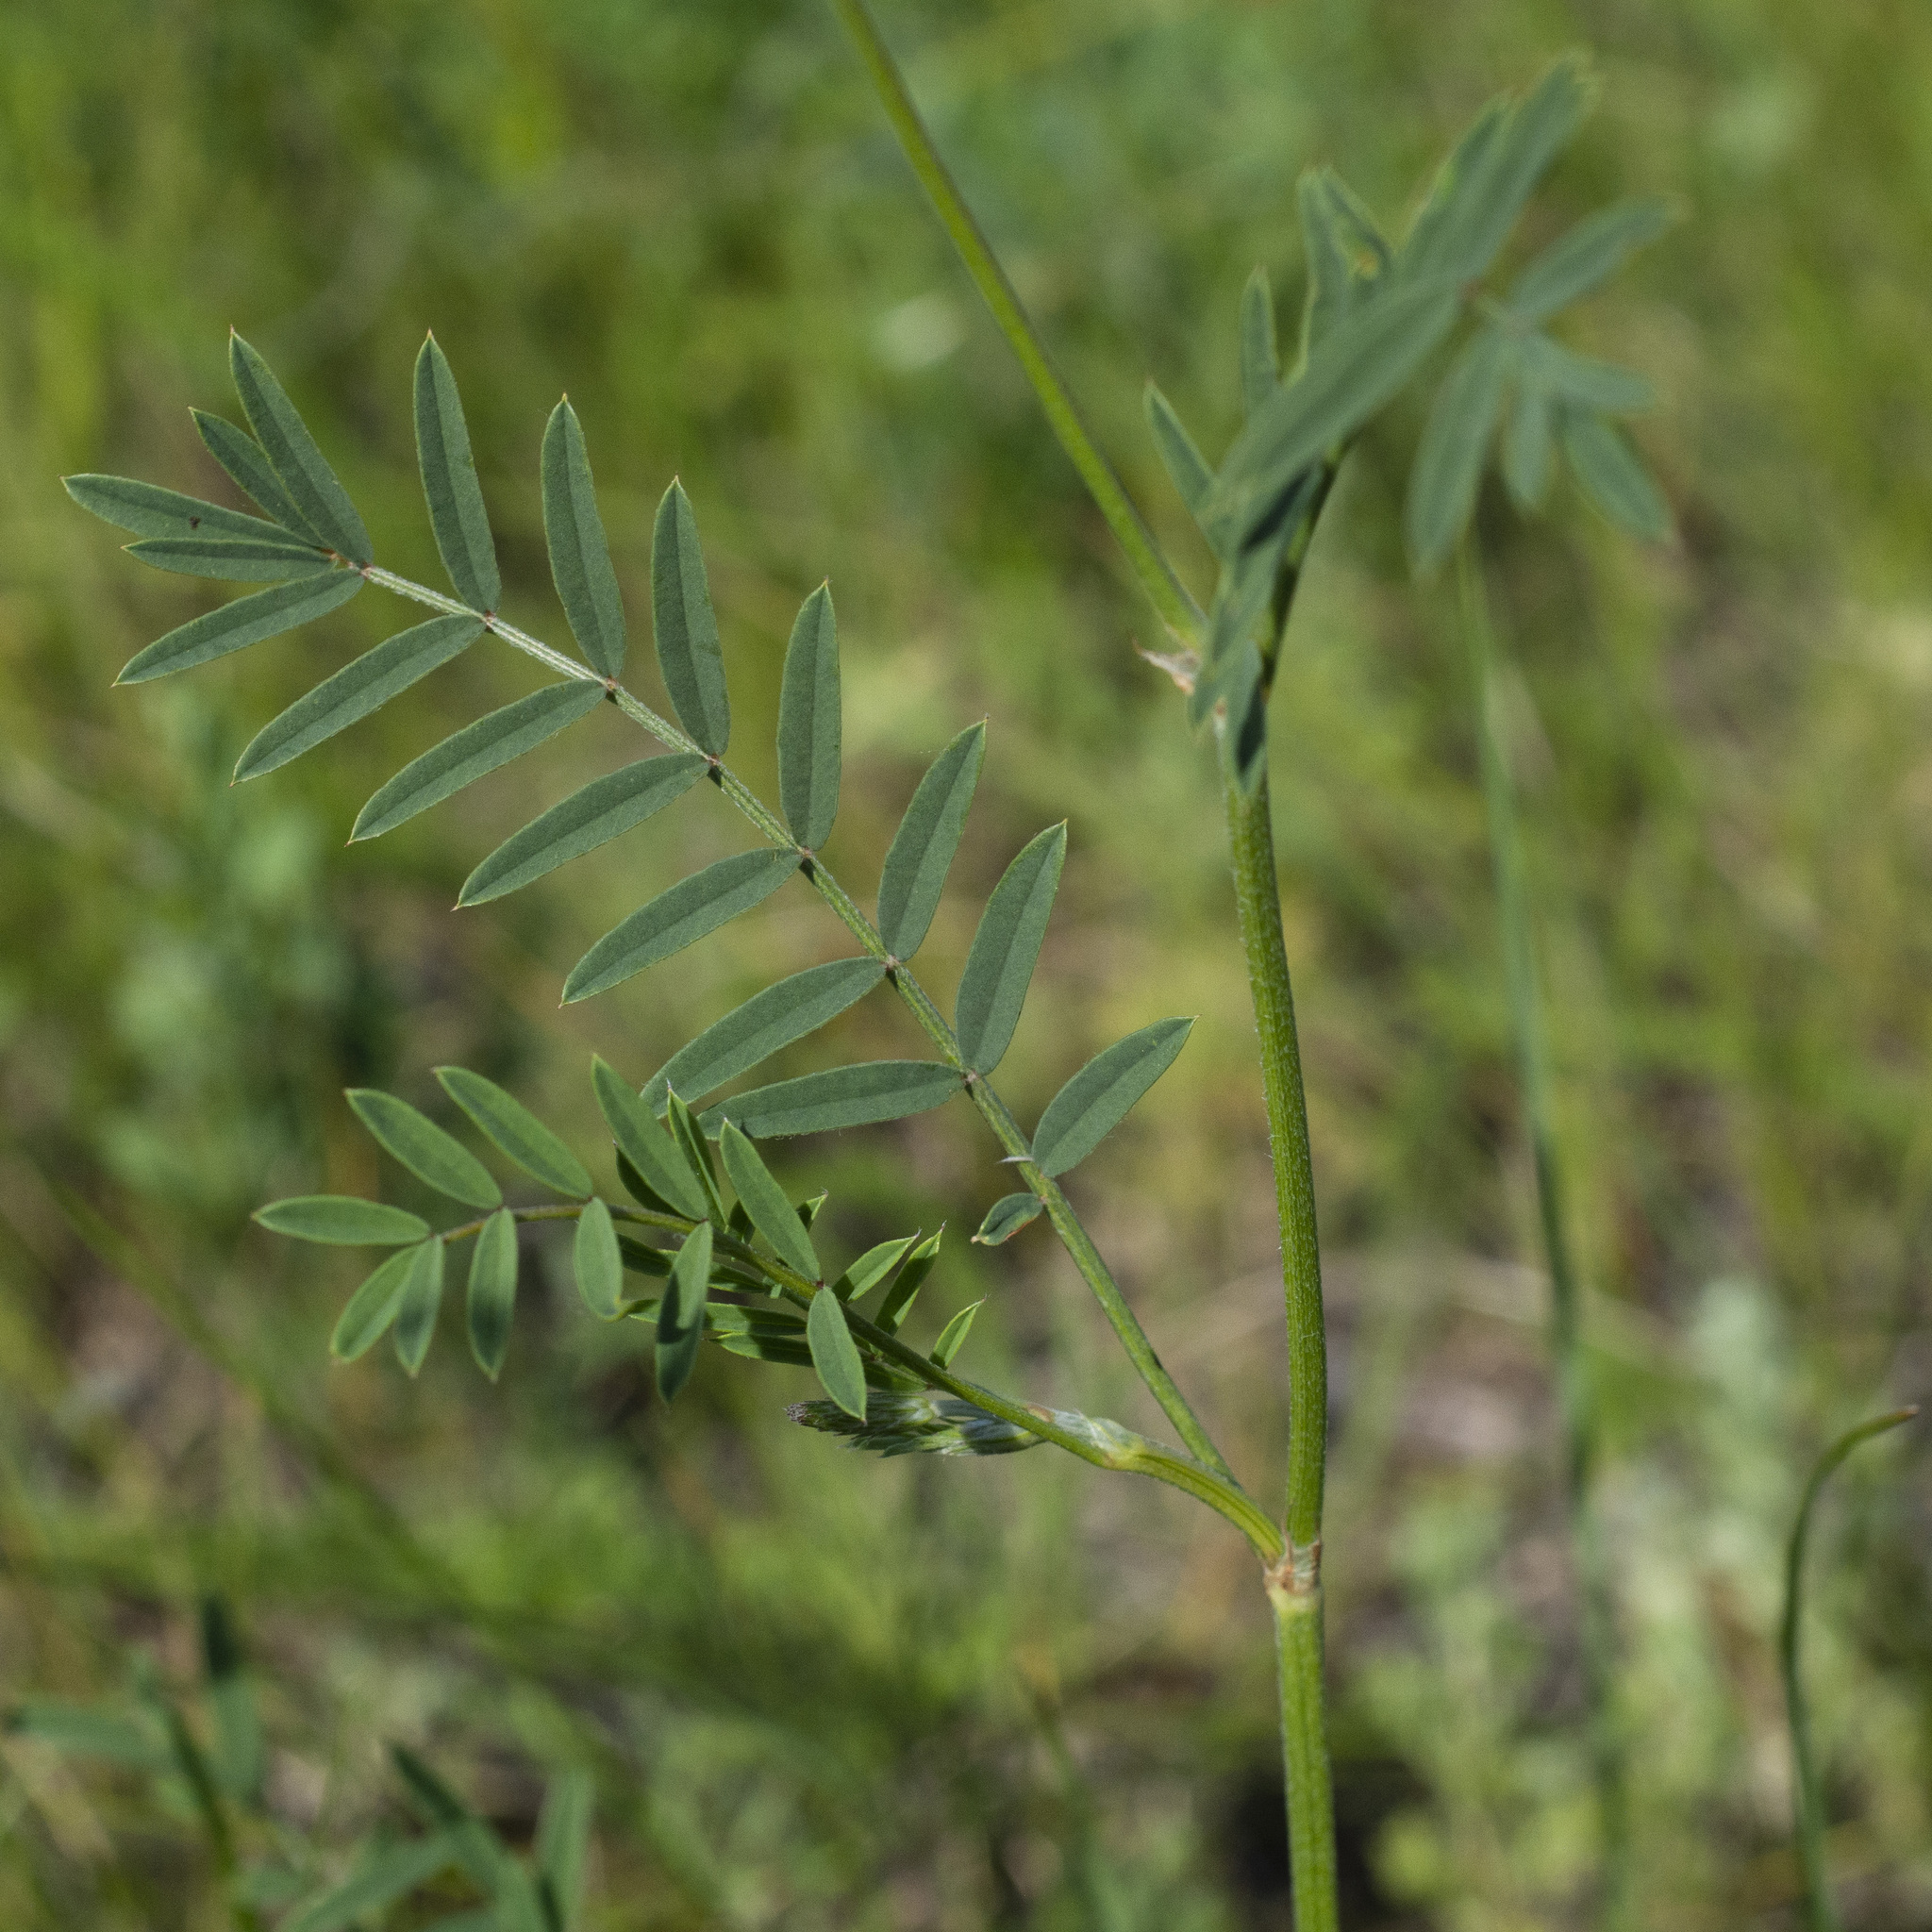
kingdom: Plantae
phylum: Tracheophyta
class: Magnoliopsida
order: Fabales
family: Fabaceae
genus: Onobrychis
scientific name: Onobrychis viciifolia
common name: Sainfoin
